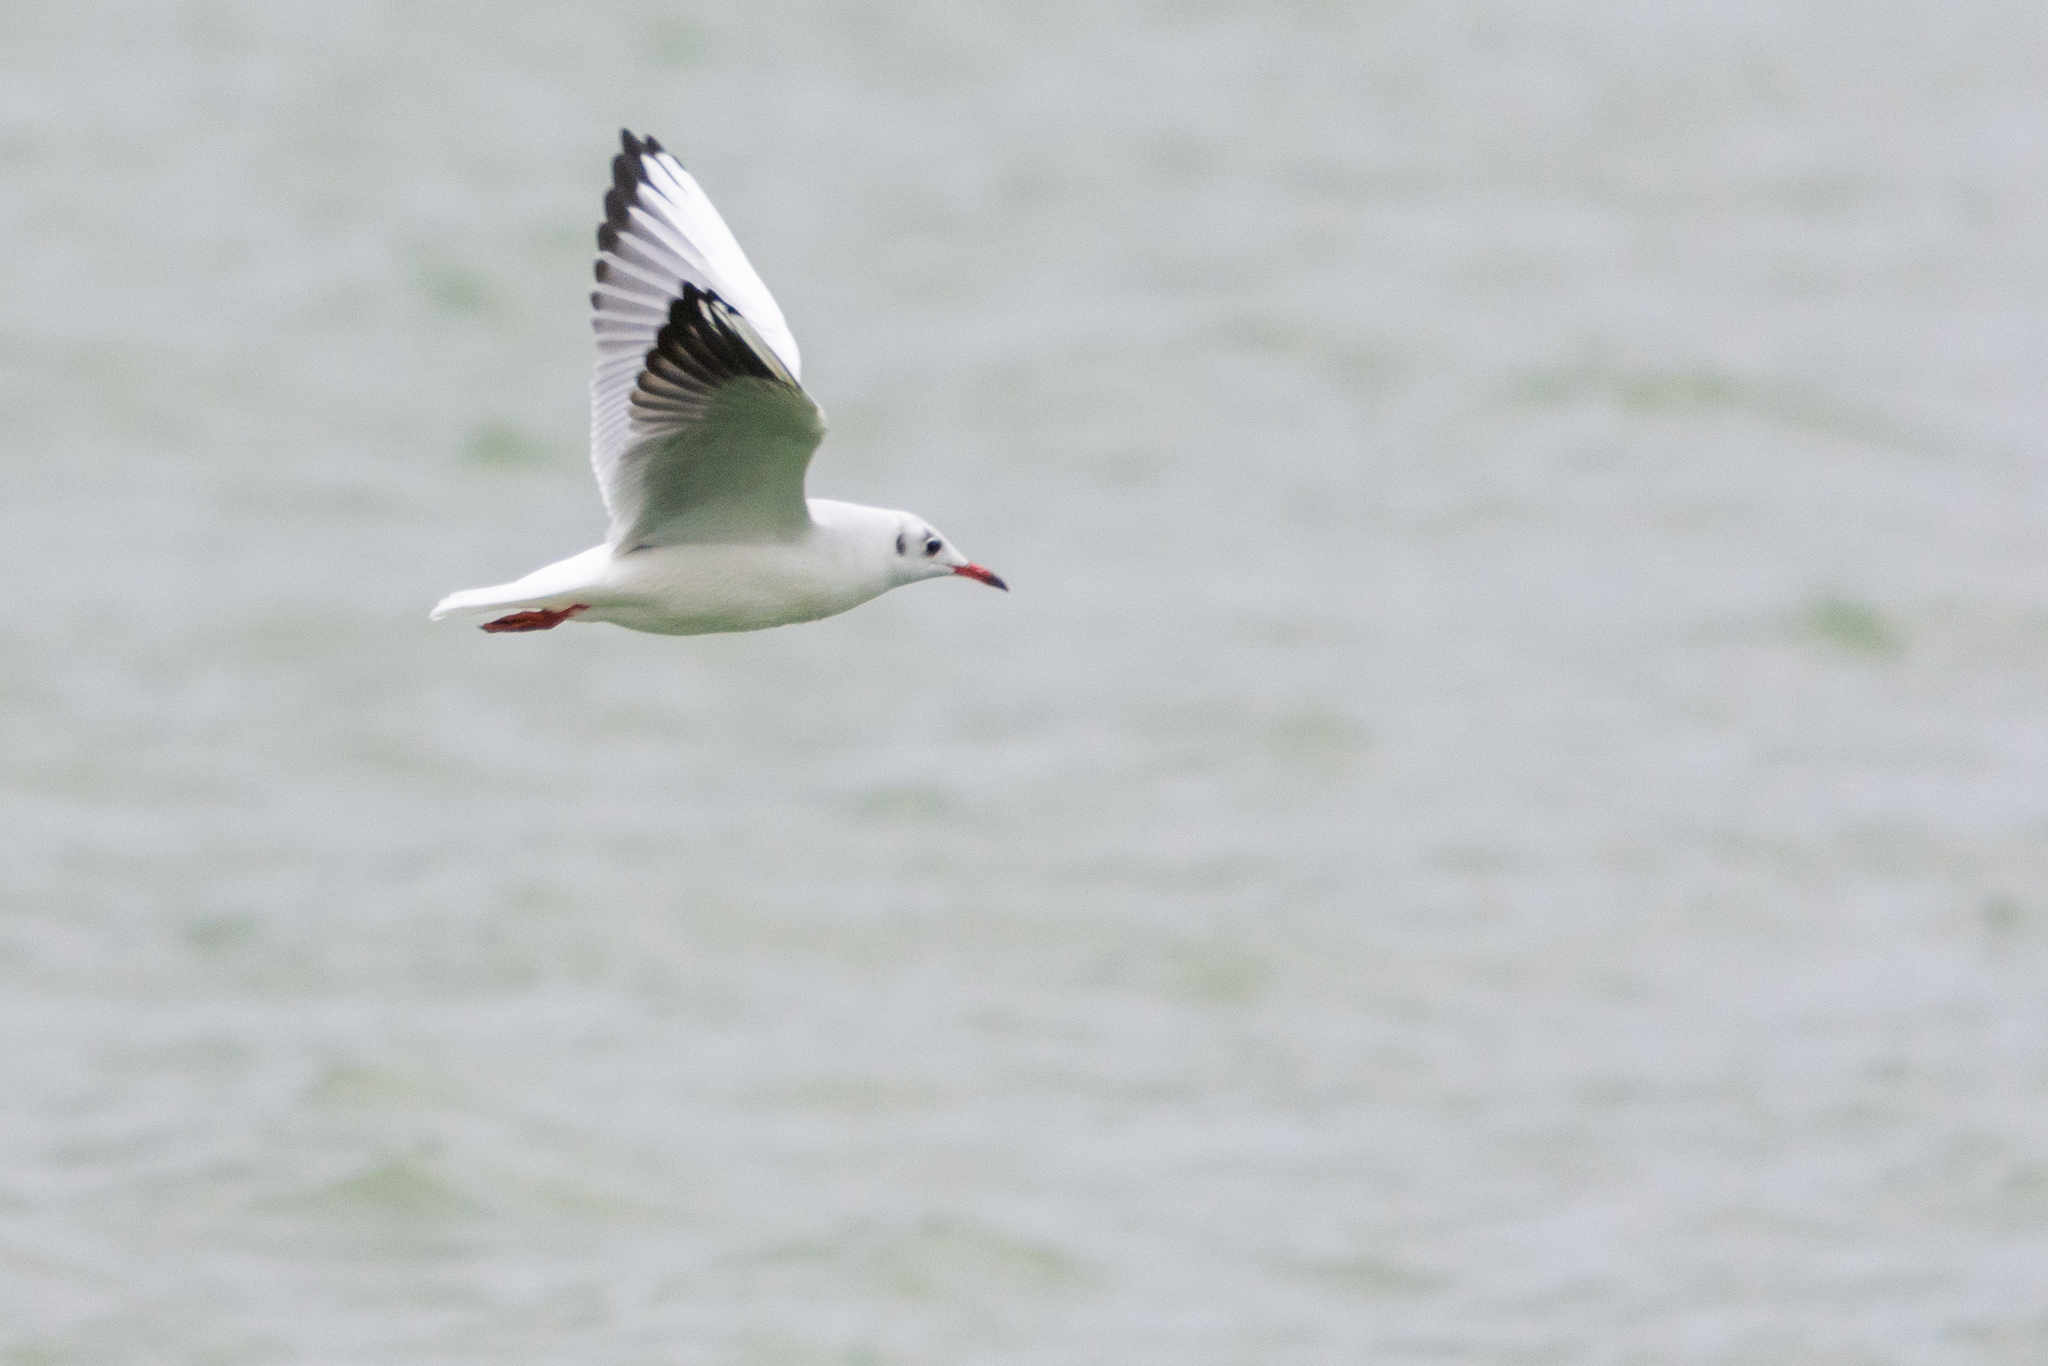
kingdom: Animalia
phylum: Chordata
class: Aves
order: Charadriiformes
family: Laridae
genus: Chroicocephalus
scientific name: Chroicocephalus ridibundus
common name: Black-headed gull
